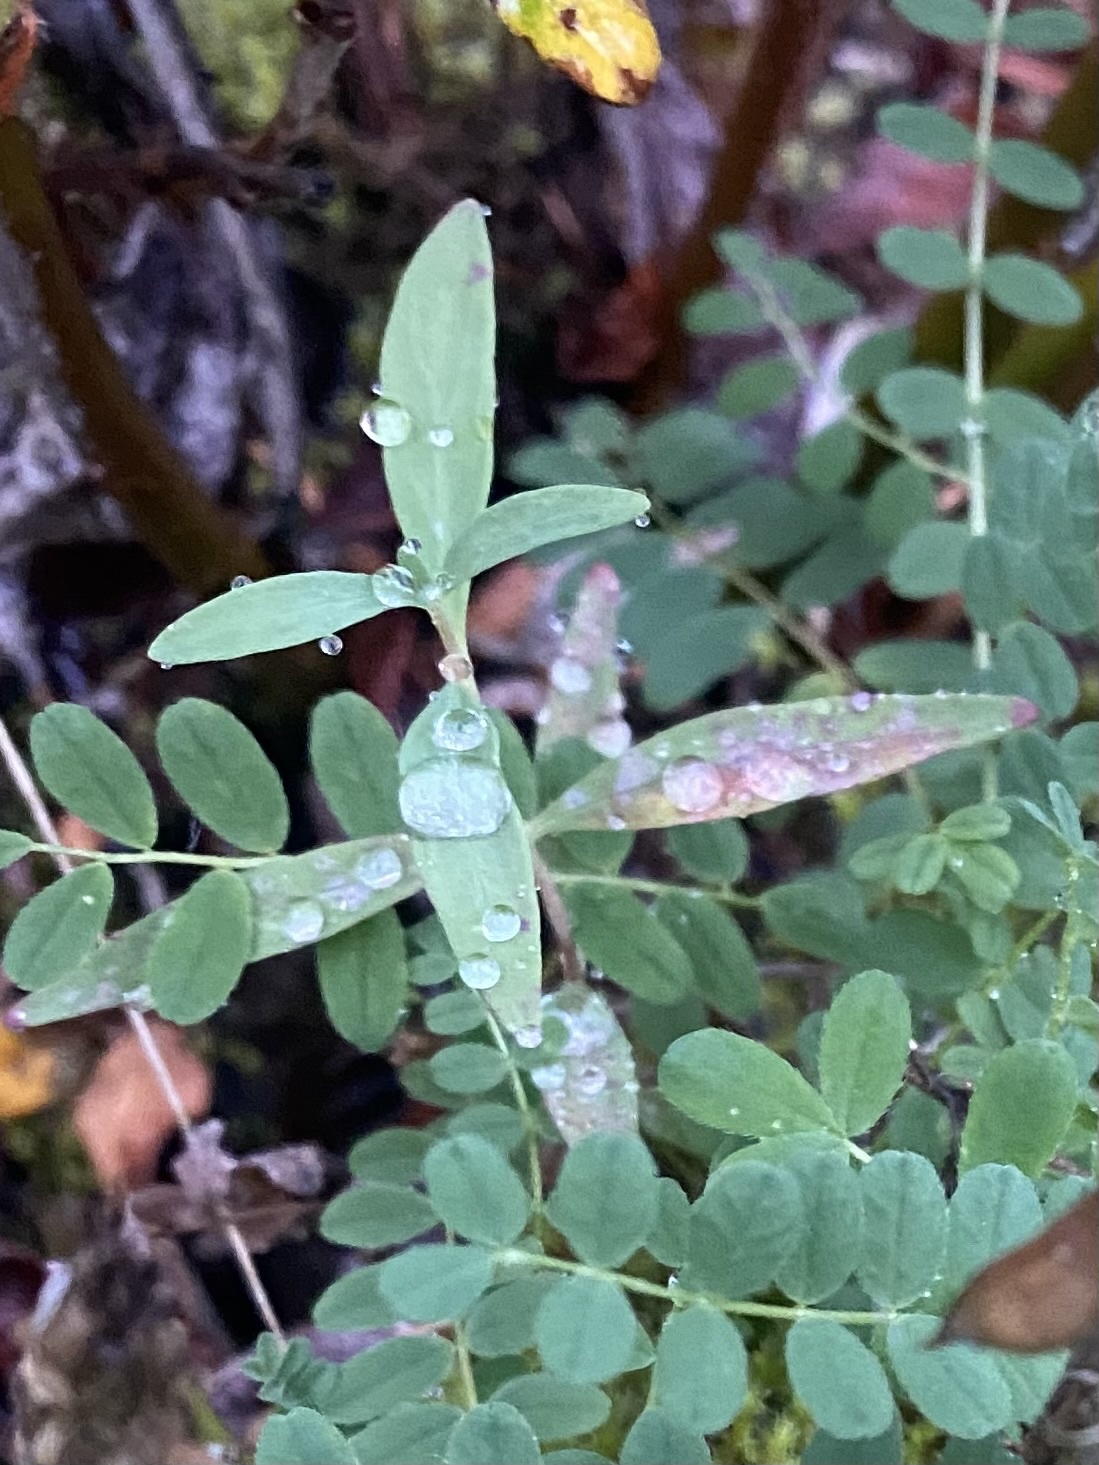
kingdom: Plantae
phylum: Tracheophyta
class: Magnoliopsida
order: Myrtales
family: Onagraceae
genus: Chamaenerion
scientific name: Chamaenerion latifolium
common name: Dwarf fireweed
